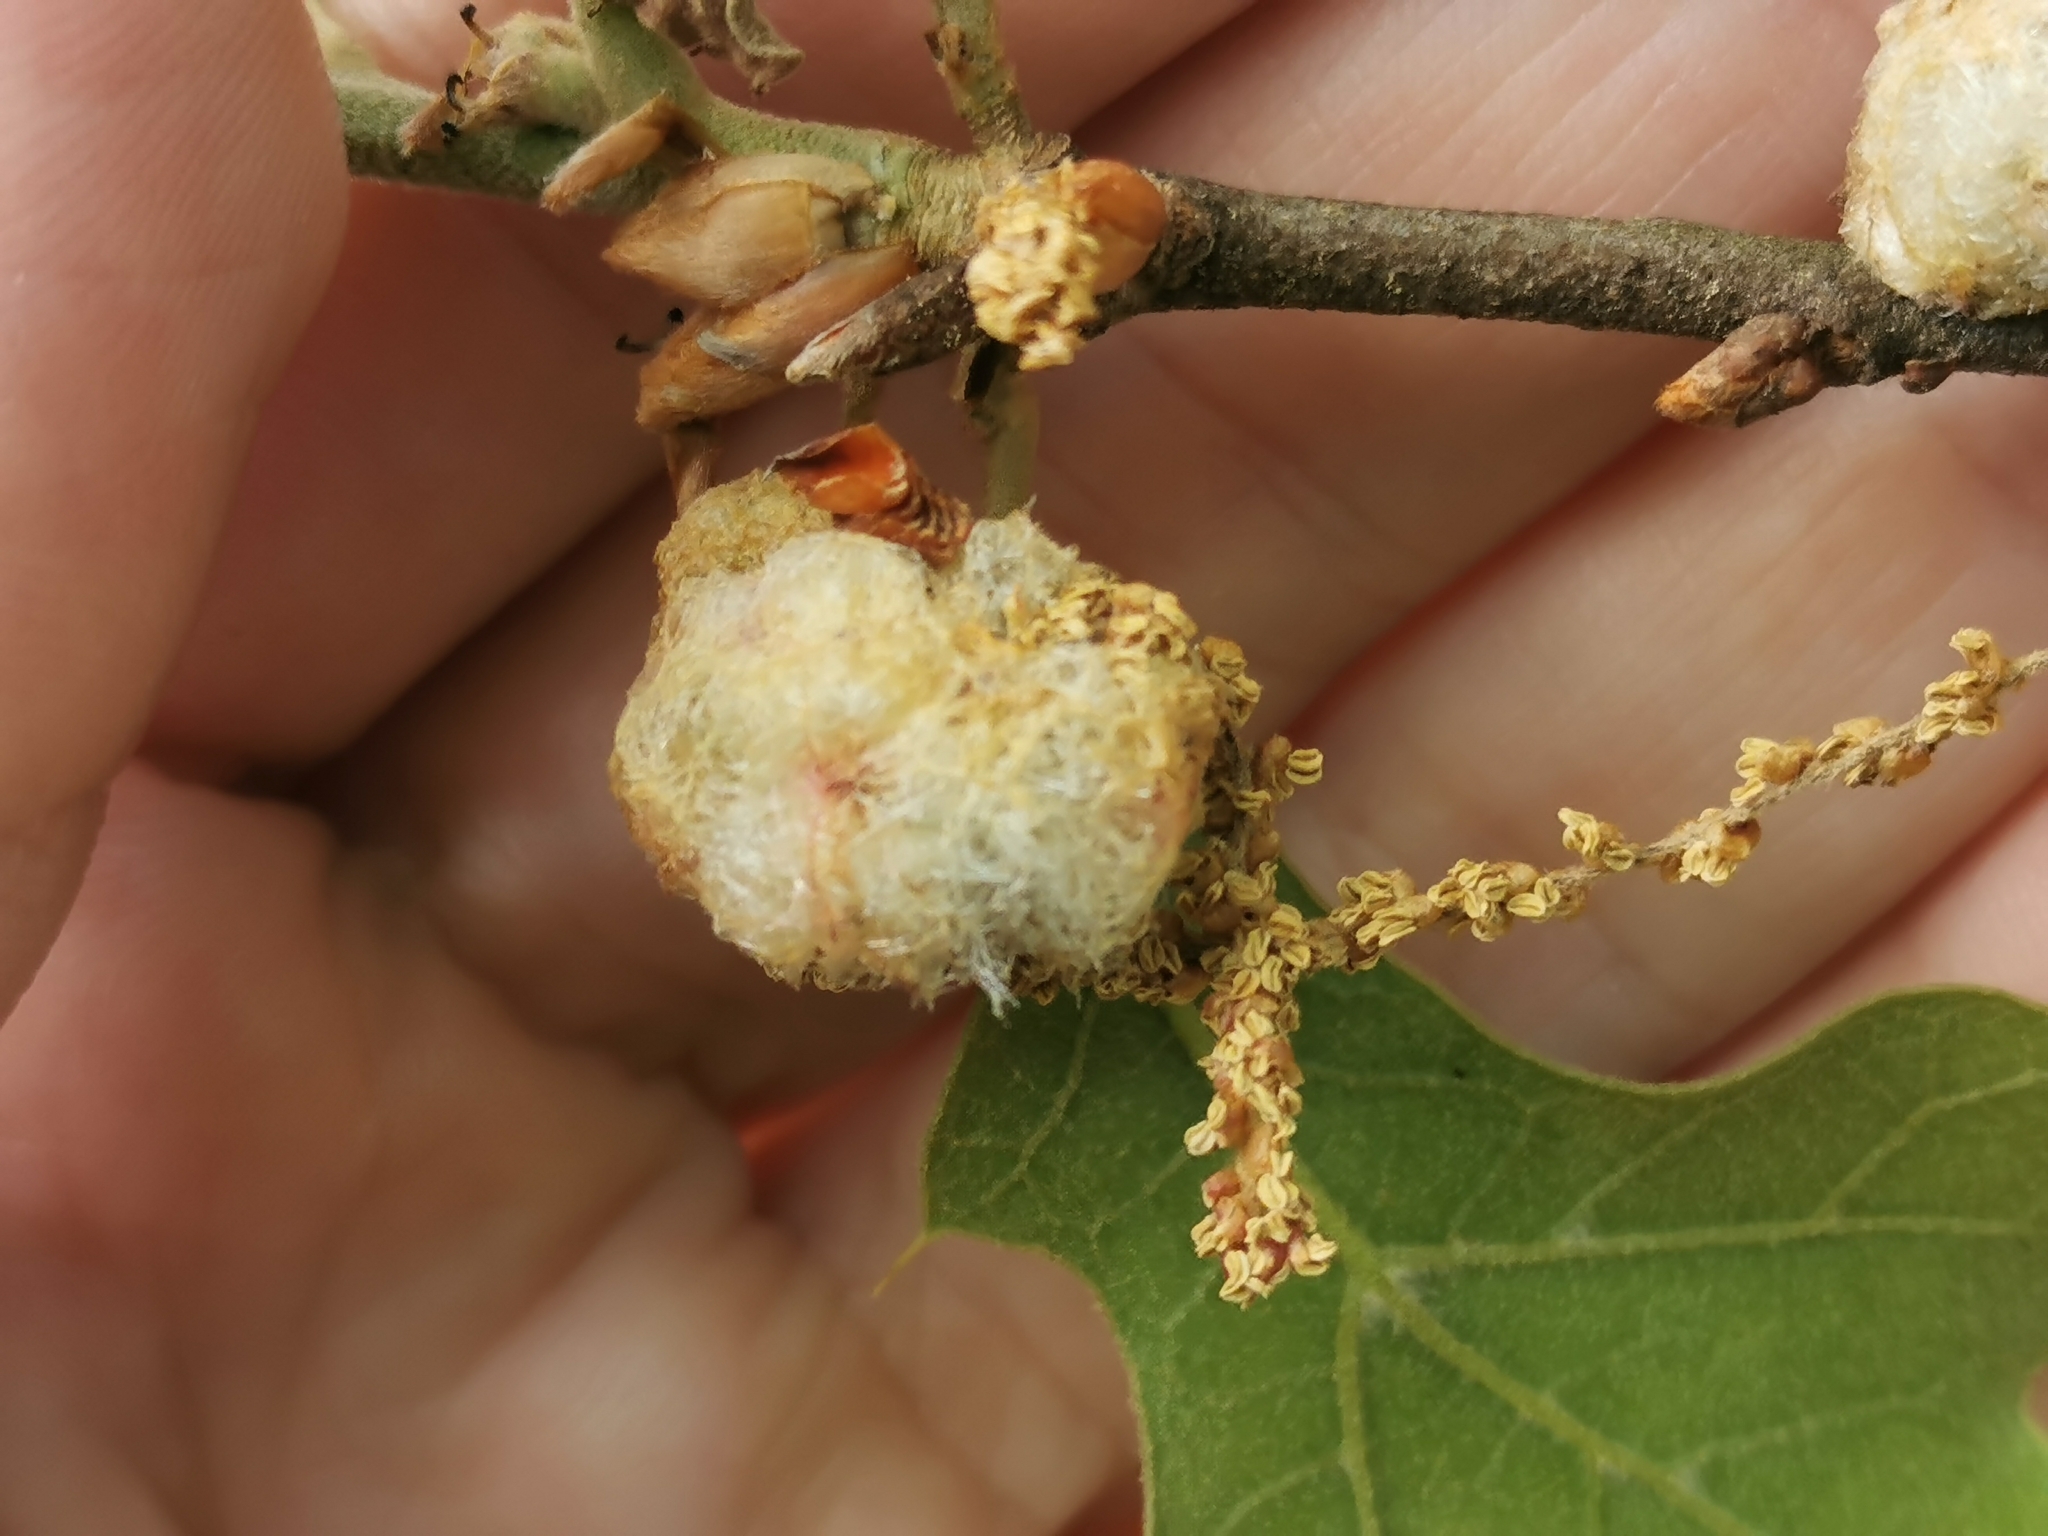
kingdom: Animalia
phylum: Arthropoda
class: Insecta
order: Hymenoptera
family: Cynipidae
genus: Callirhytis
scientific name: Callirhytis
